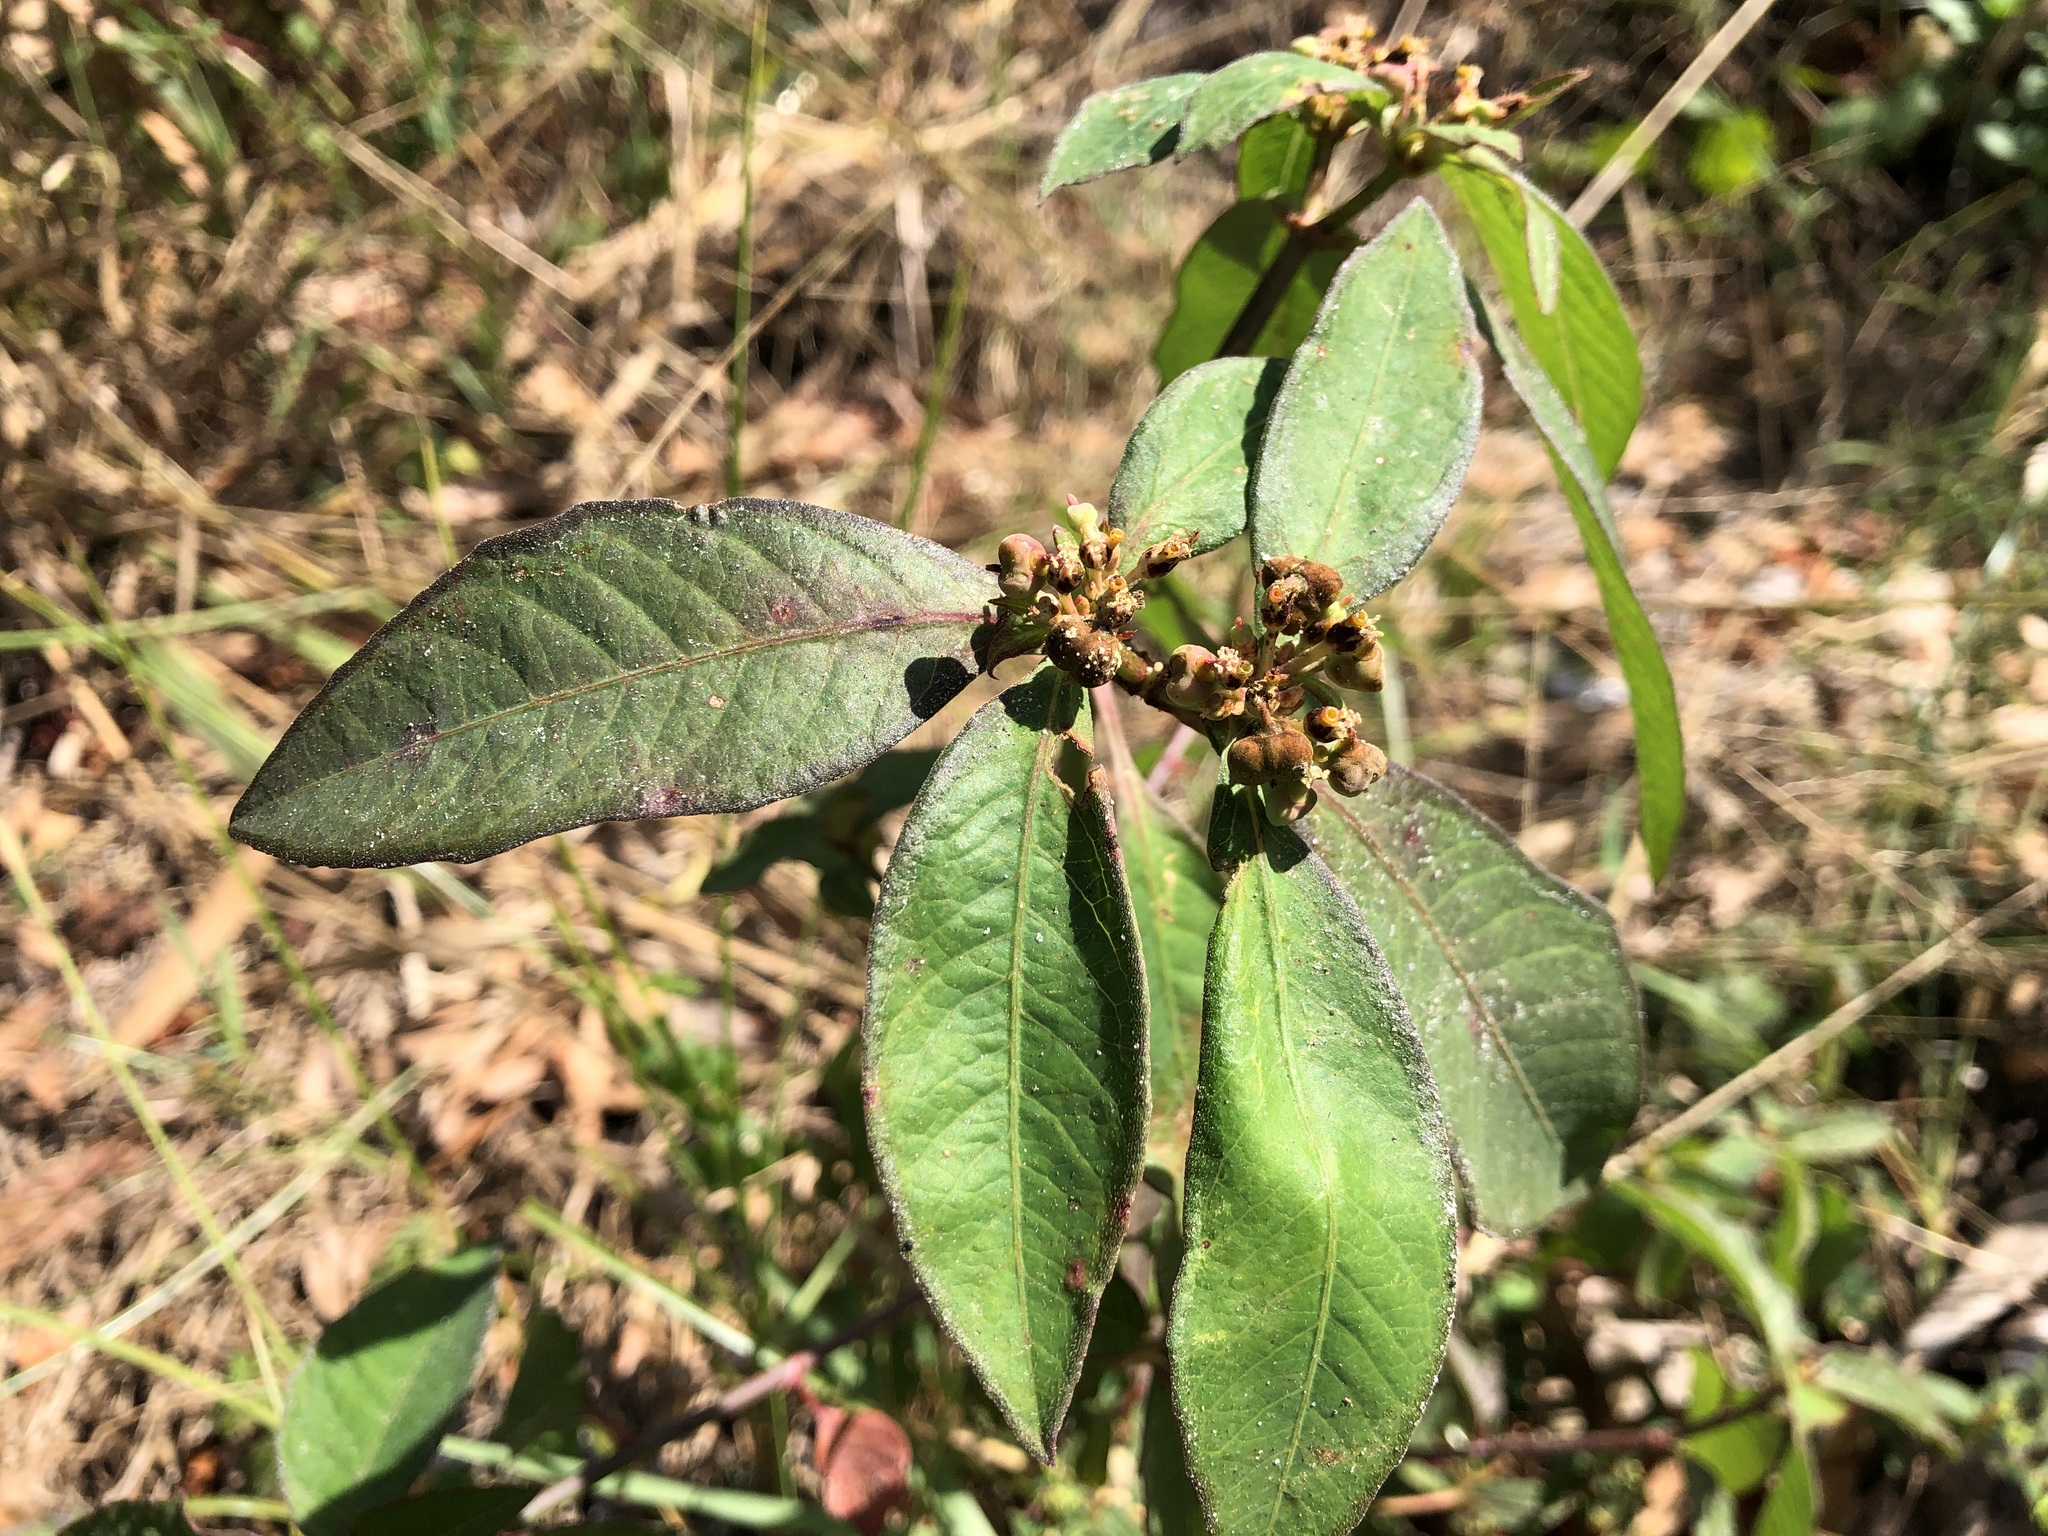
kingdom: Plantae
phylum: Tracheophyta
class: Magnoliopsida
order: Malpighiales
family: Euphorbiaceae
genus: Euphorbia
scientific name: Euphorbia heterophylla
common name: Mexican fireplant
